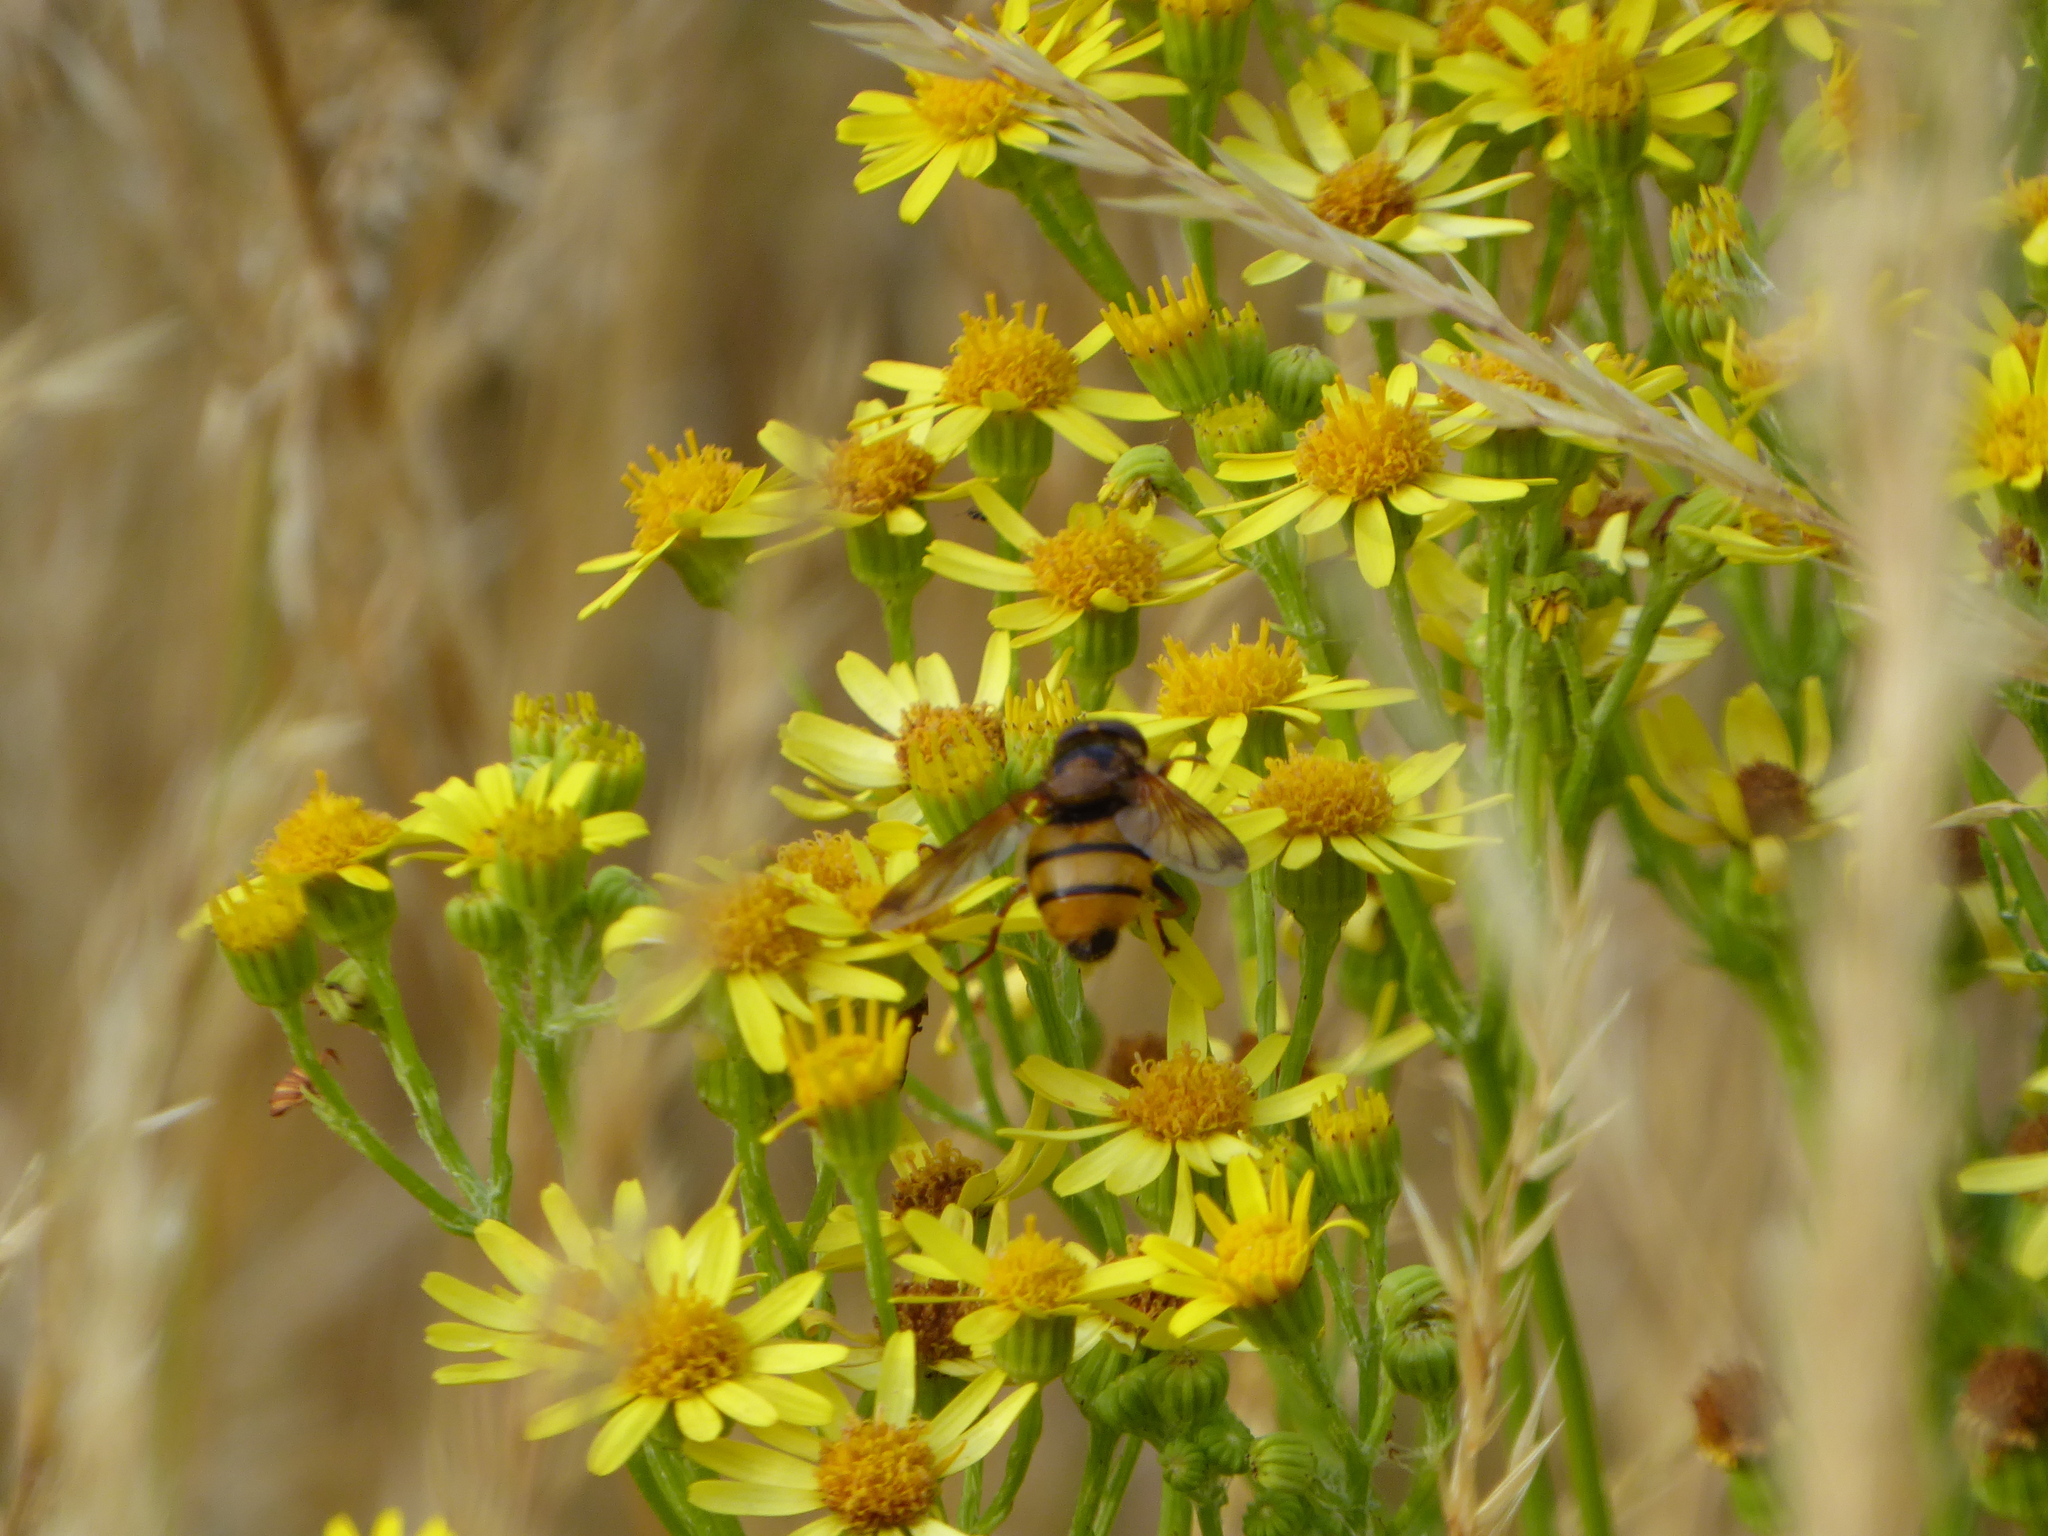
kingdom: Animalia
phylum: Arthropoda
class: Insecta
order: Diptera
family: Syrphidae
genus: Volucella
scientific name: Volucella inanis
